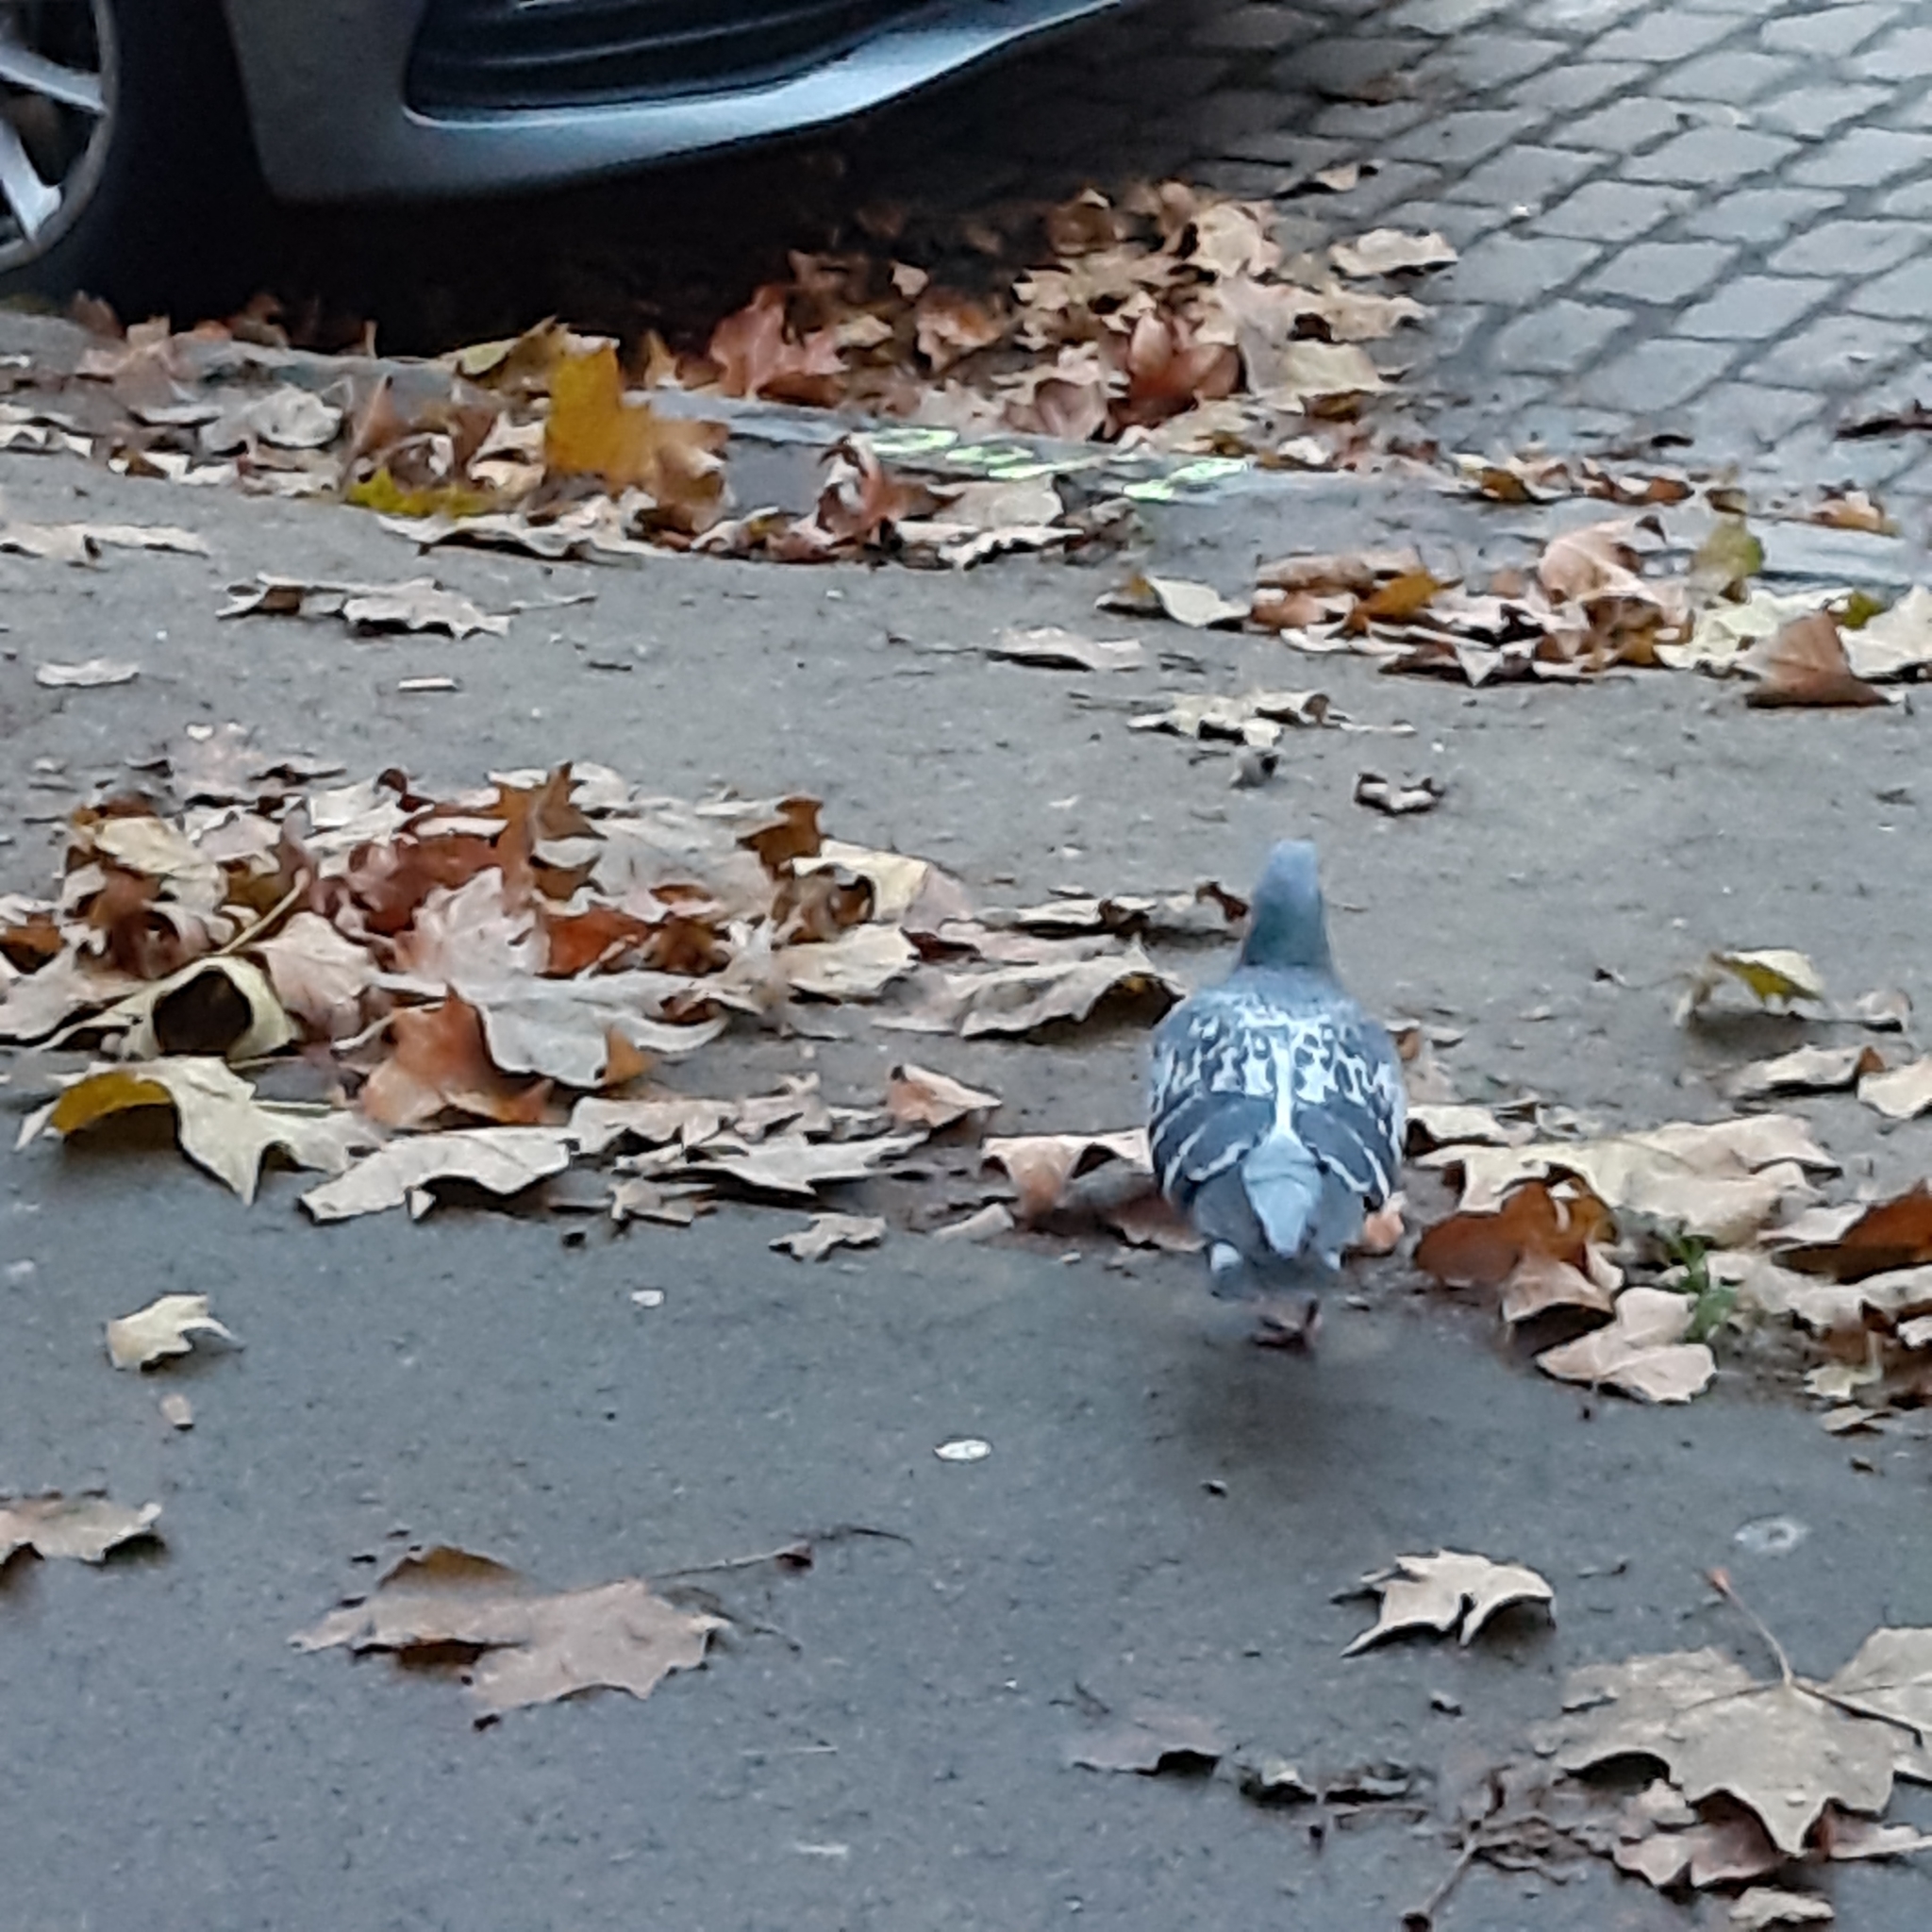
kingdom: Animalia
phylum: Chordata
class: Aves
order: Columbiformes
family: Columbidae
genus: Columba
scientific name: Columba livia
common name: Rock pigeon
